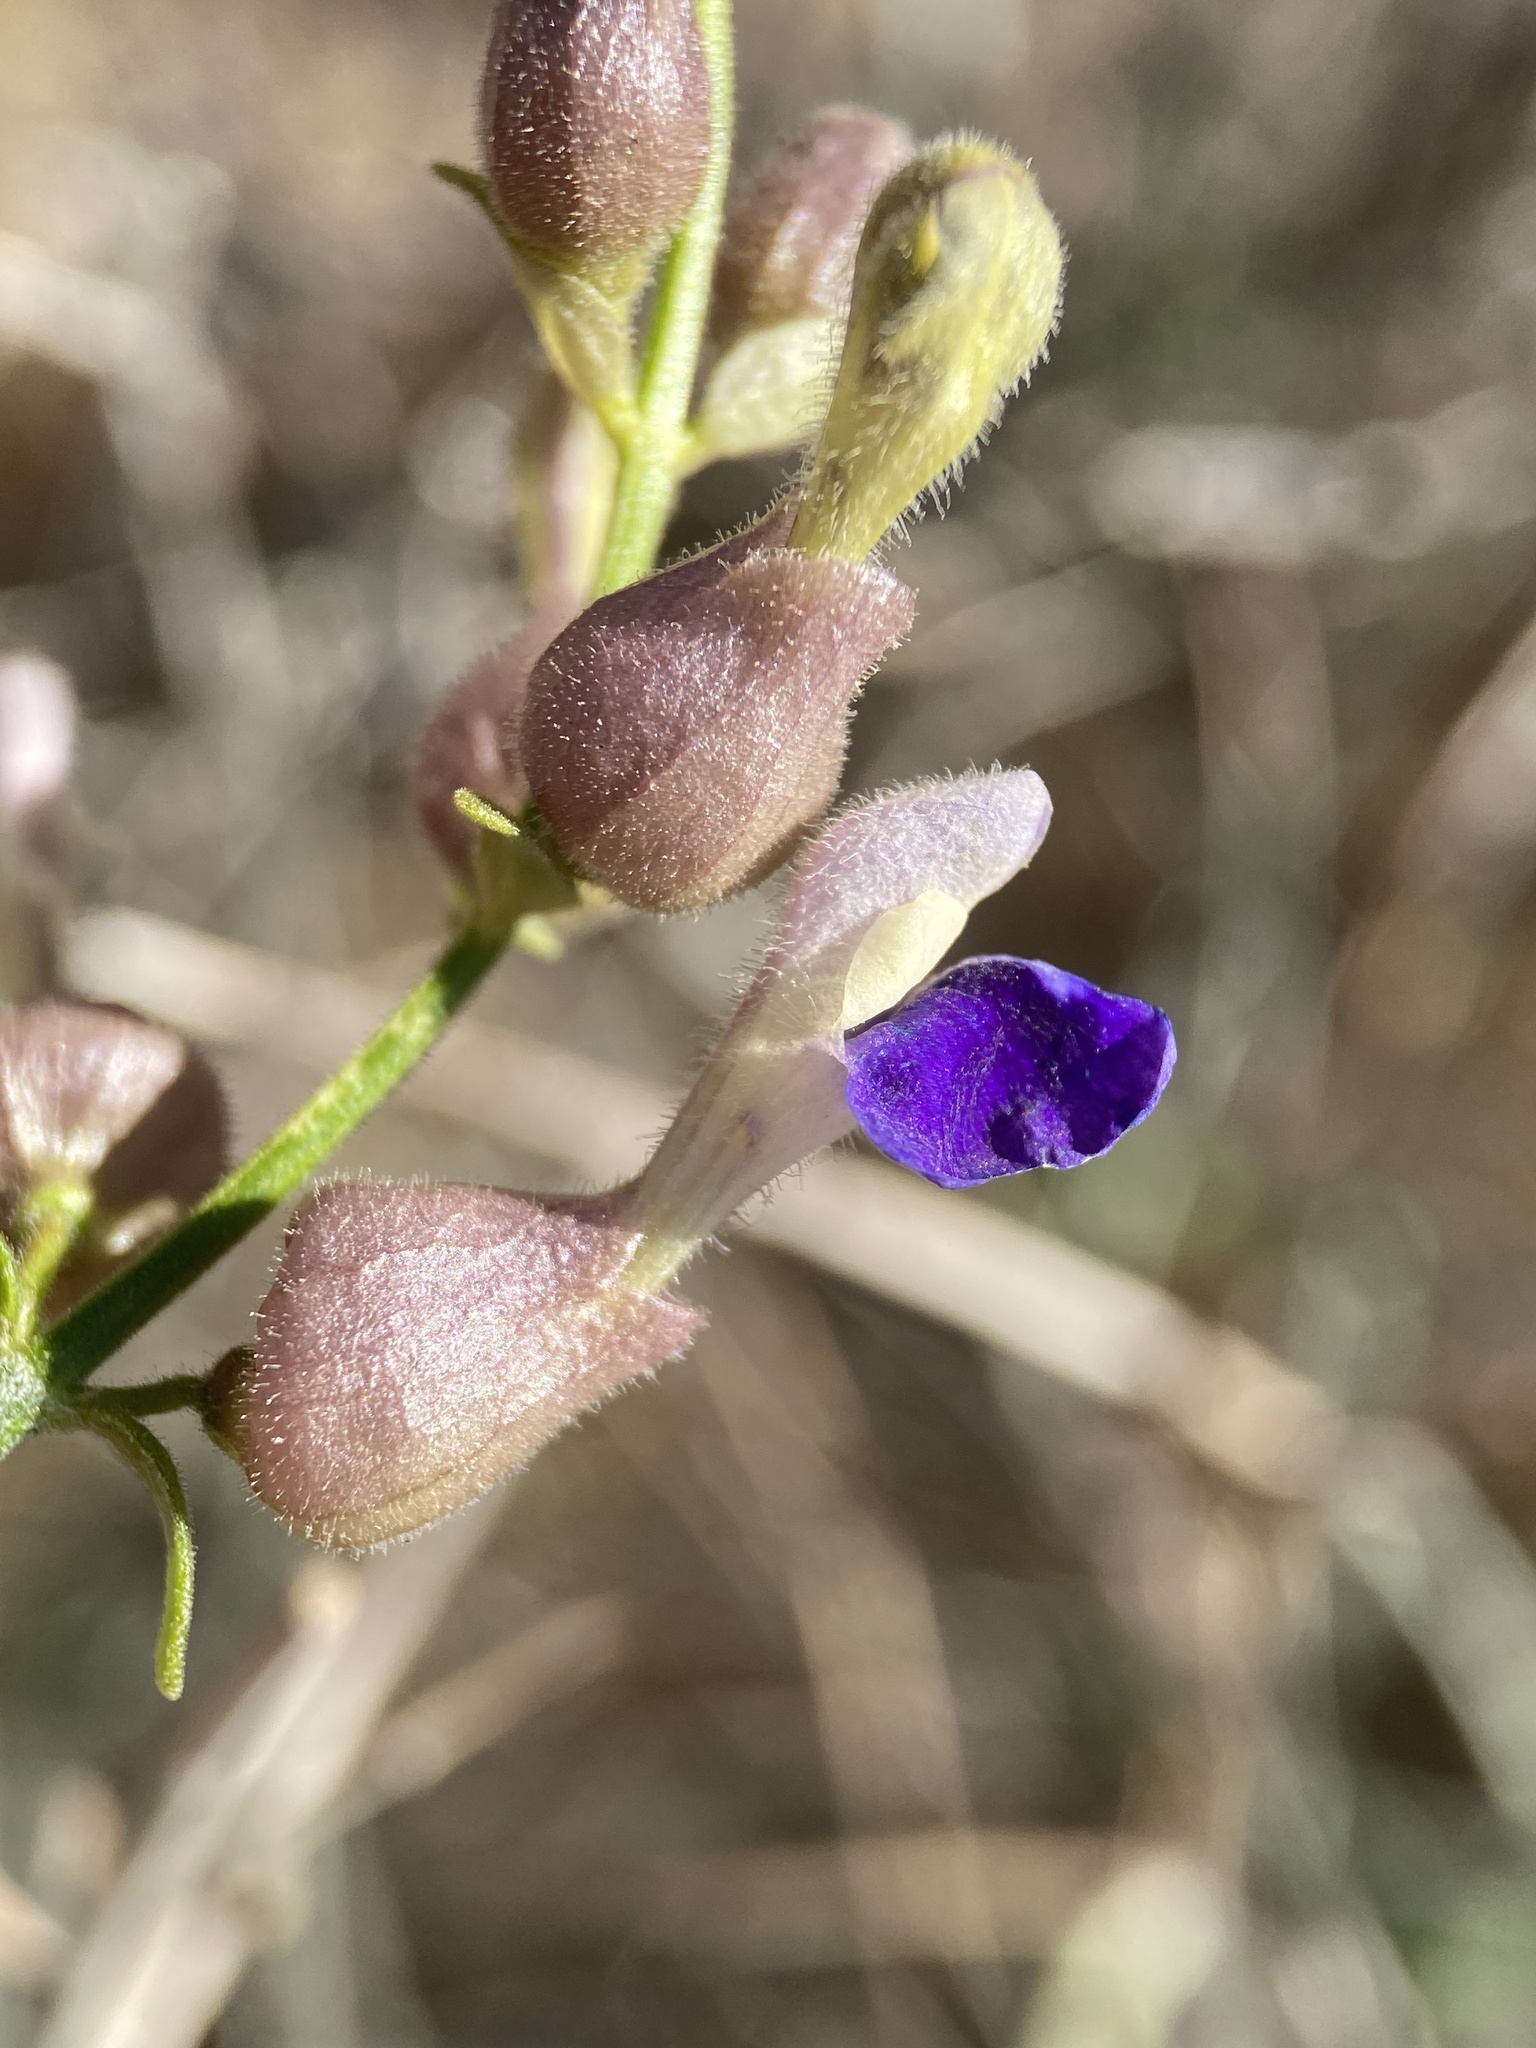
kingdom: Plantae
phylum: Tracheophyta
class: Magnoliopsida
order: Lamiales
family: Lamiaceae
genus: Scutellaria
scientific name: Scutellaria mexicana
